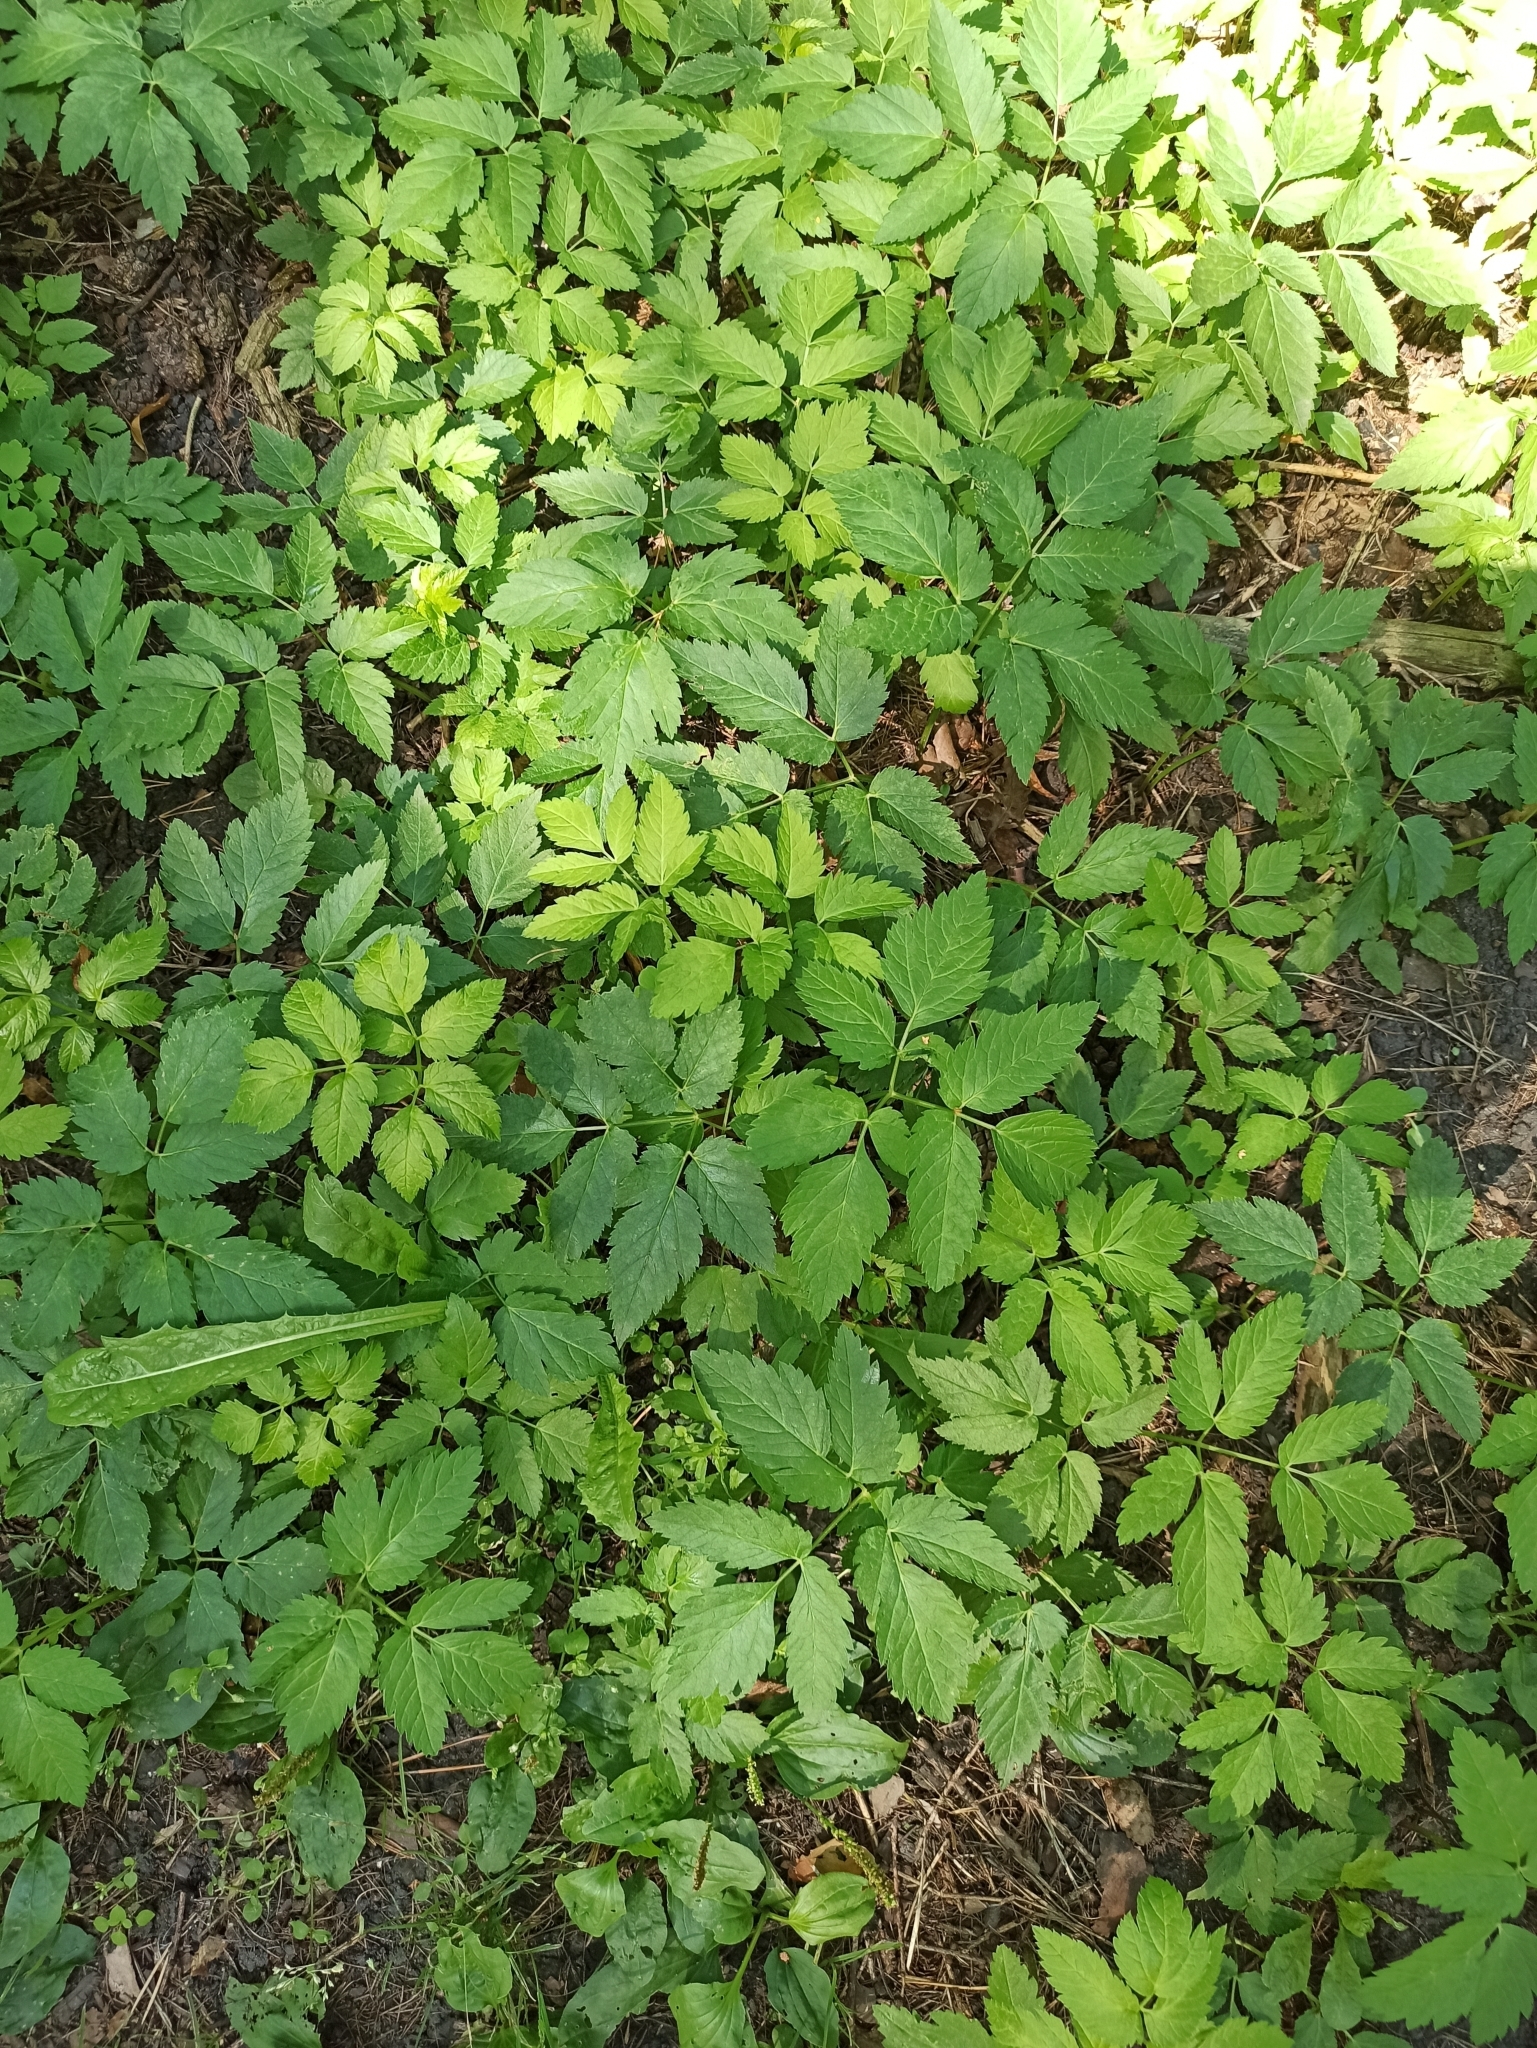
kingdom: Plantae
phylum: Tracheophyta
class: Magnoliopsida
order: Apiales
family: Apiaceae
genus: Aegopodium
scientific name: Aegopodium podagraria
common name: Ground-elder
